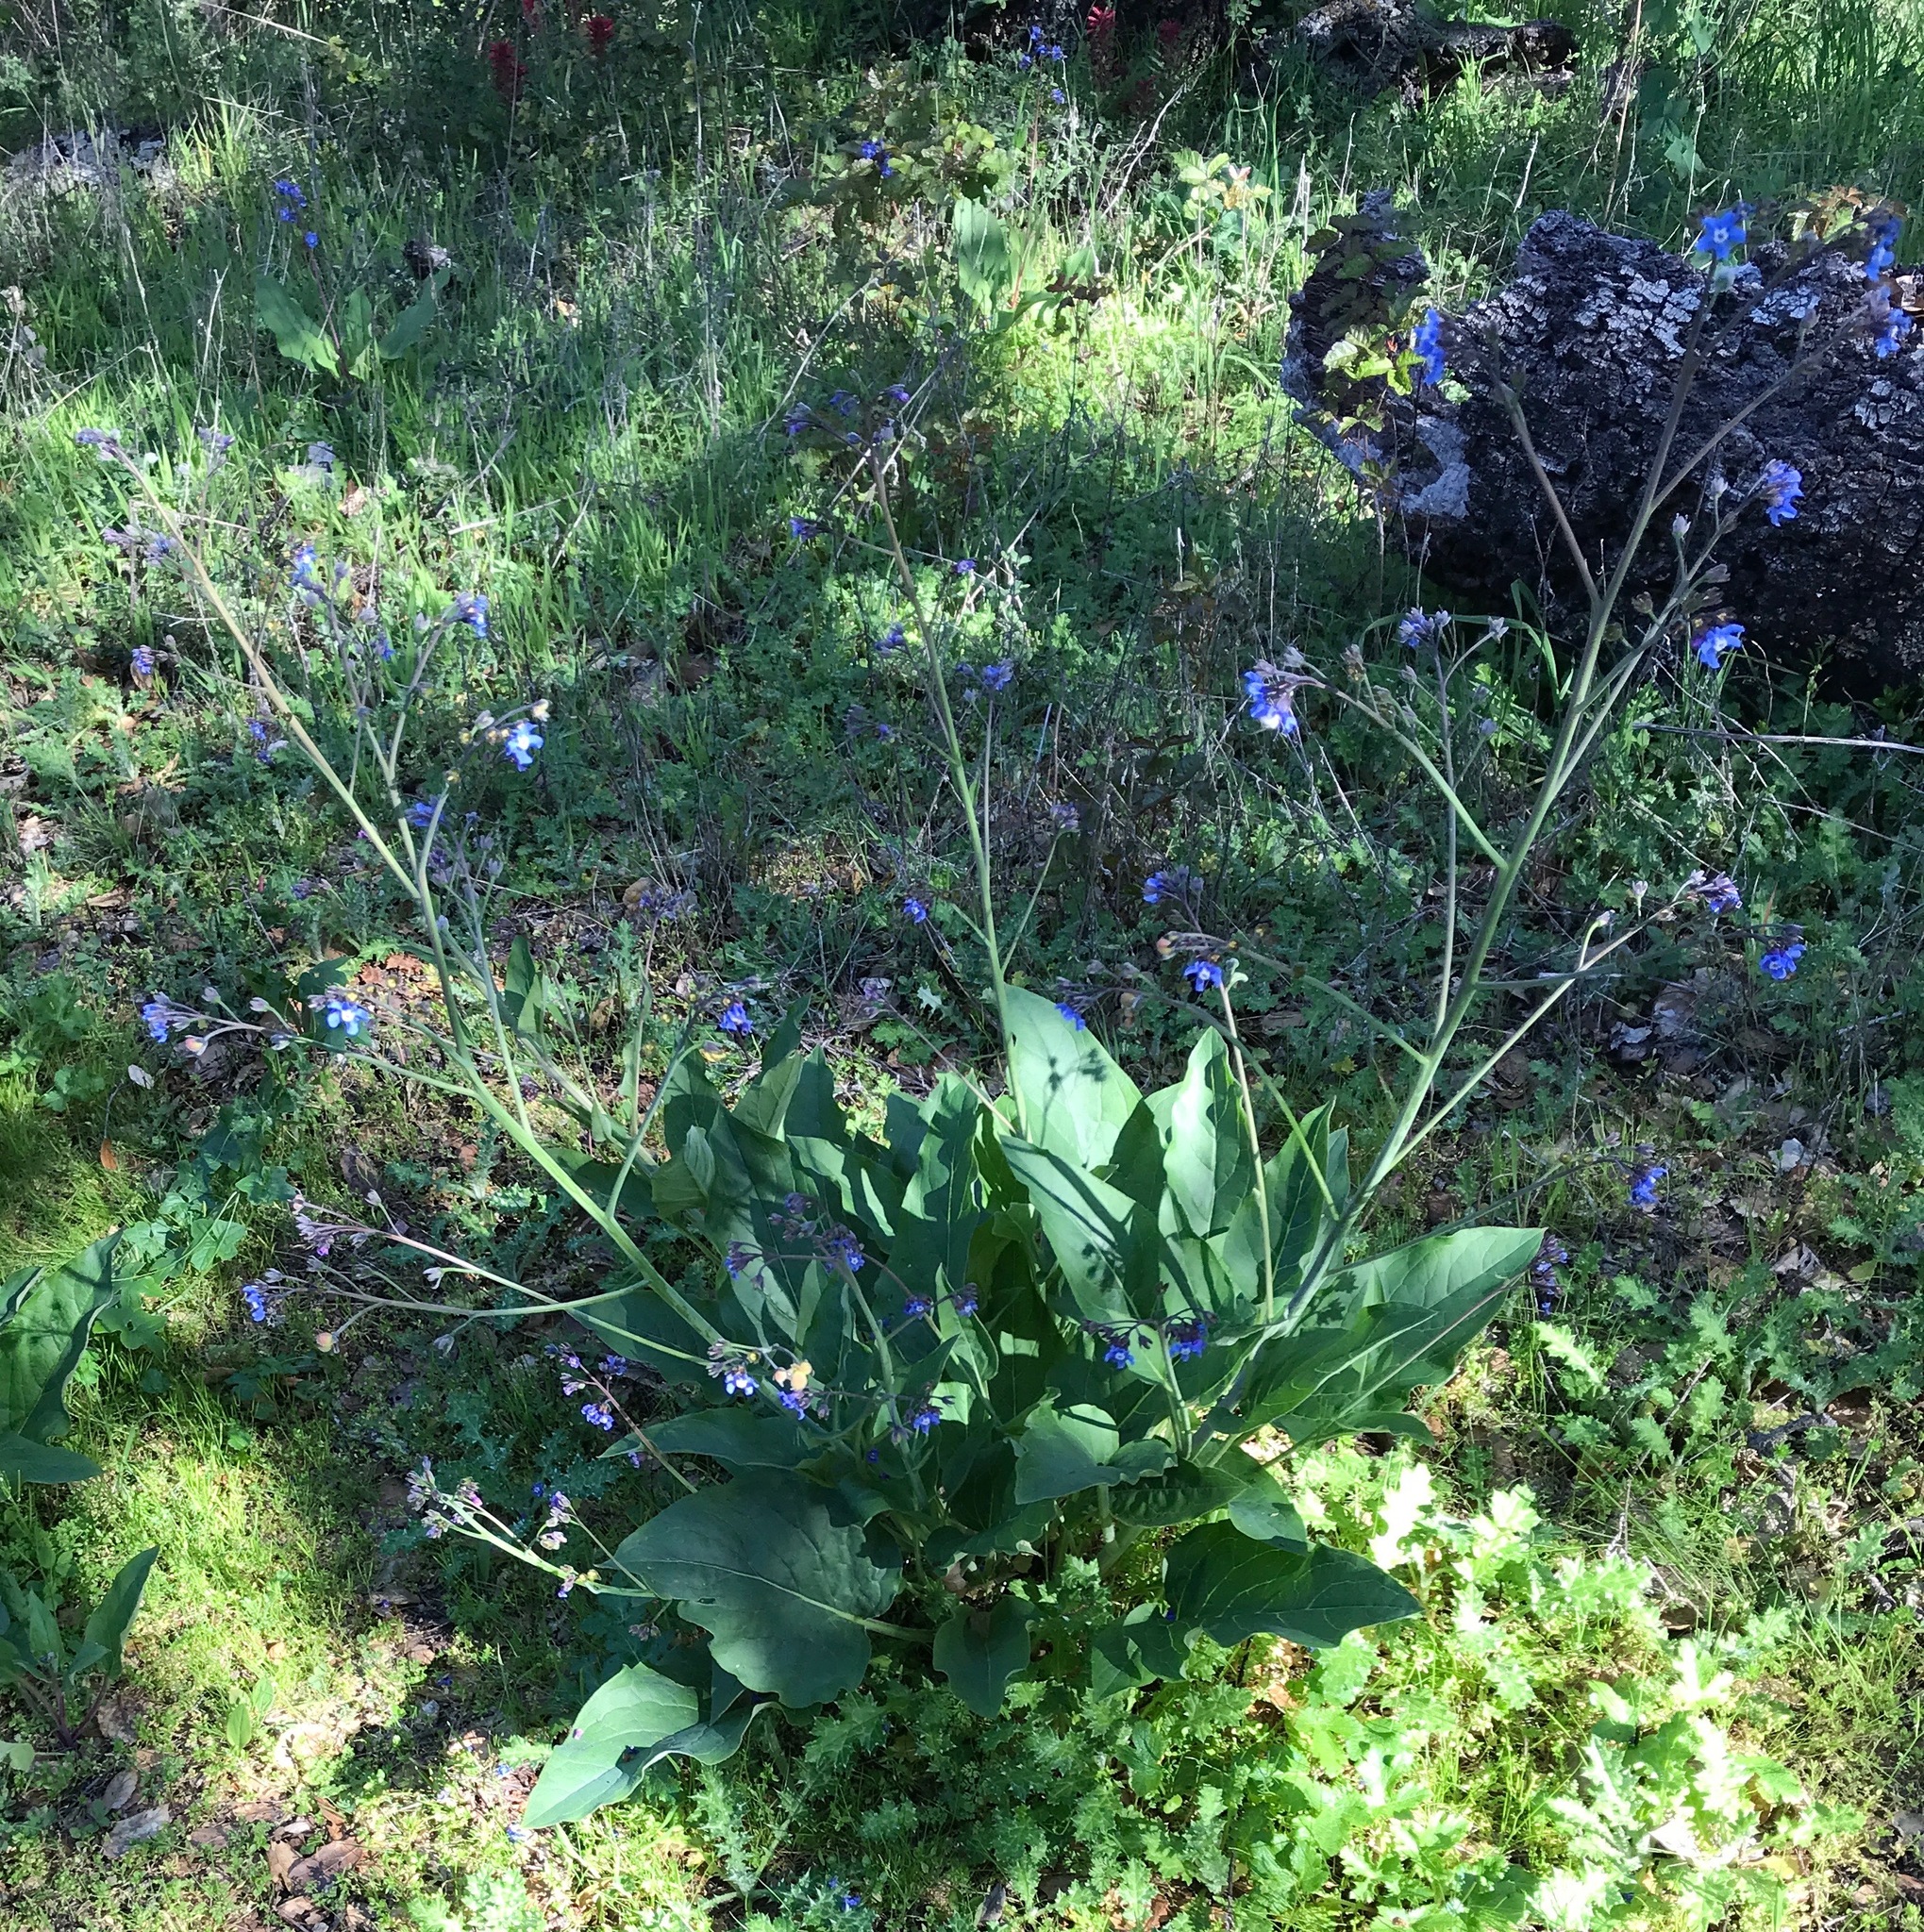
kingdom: Plantae
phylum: Tracheophyta
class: Magnoliopsida
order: Boraginales
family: Boraginaceae
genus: Adelinia
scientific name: Adelinia grande
